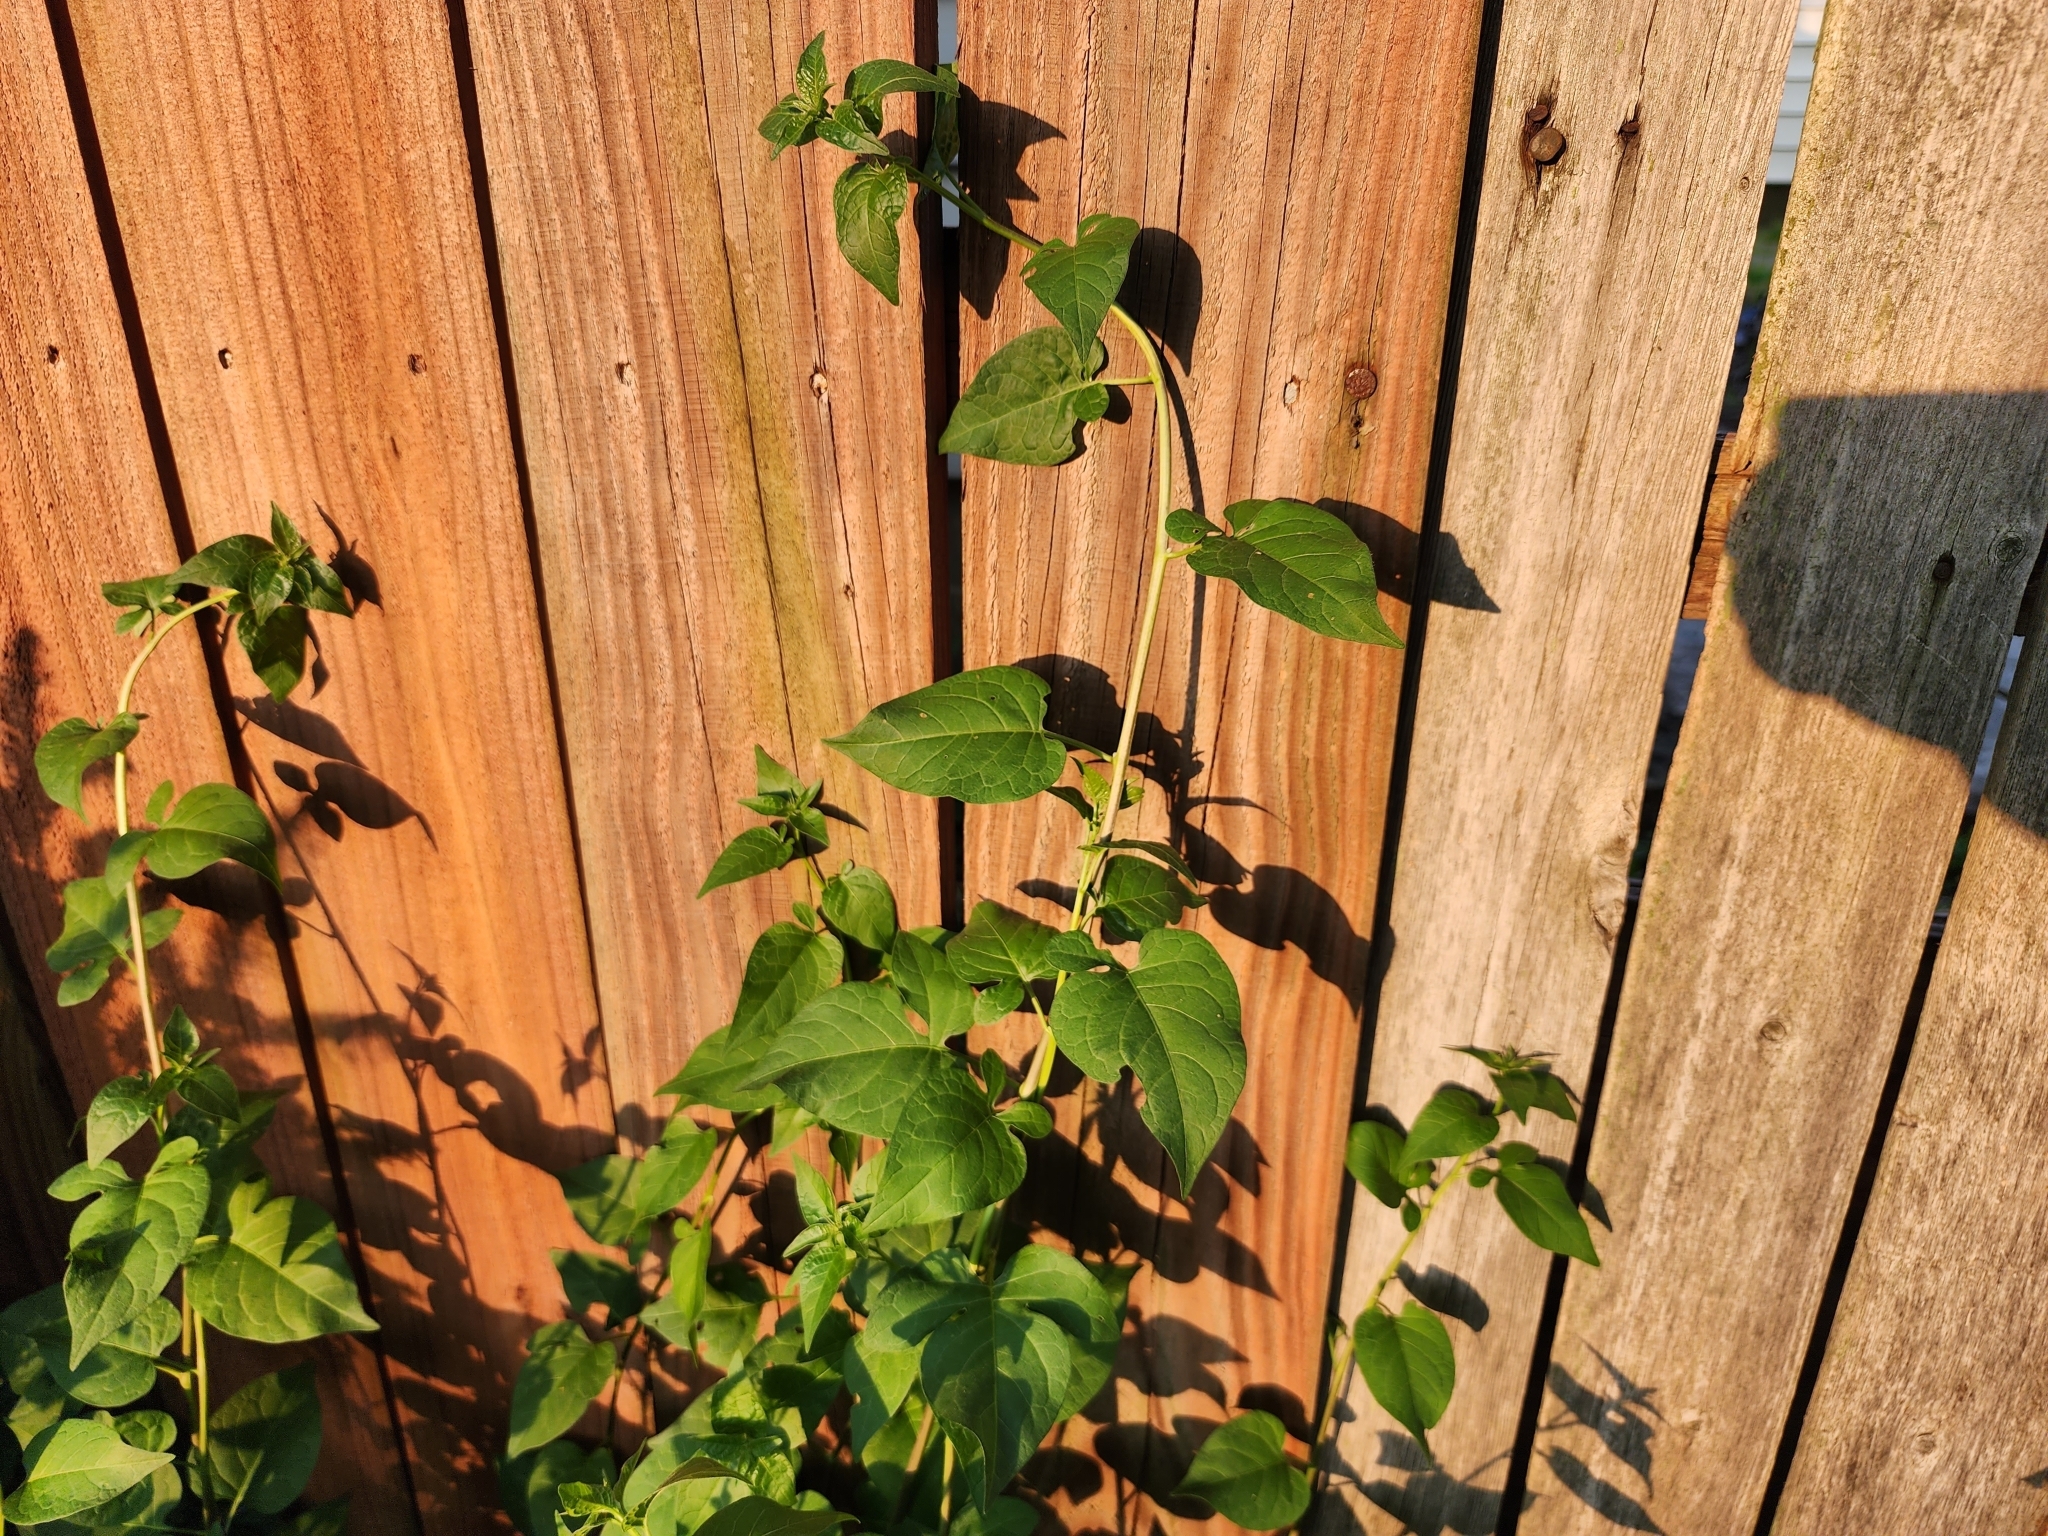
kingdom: Plantae
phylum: Tracheophyta
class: Magnoliopsida
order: Solanales
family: Solanaceae
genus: Solanum
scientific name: Solanum dulcamara
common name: Climbing nightshade
